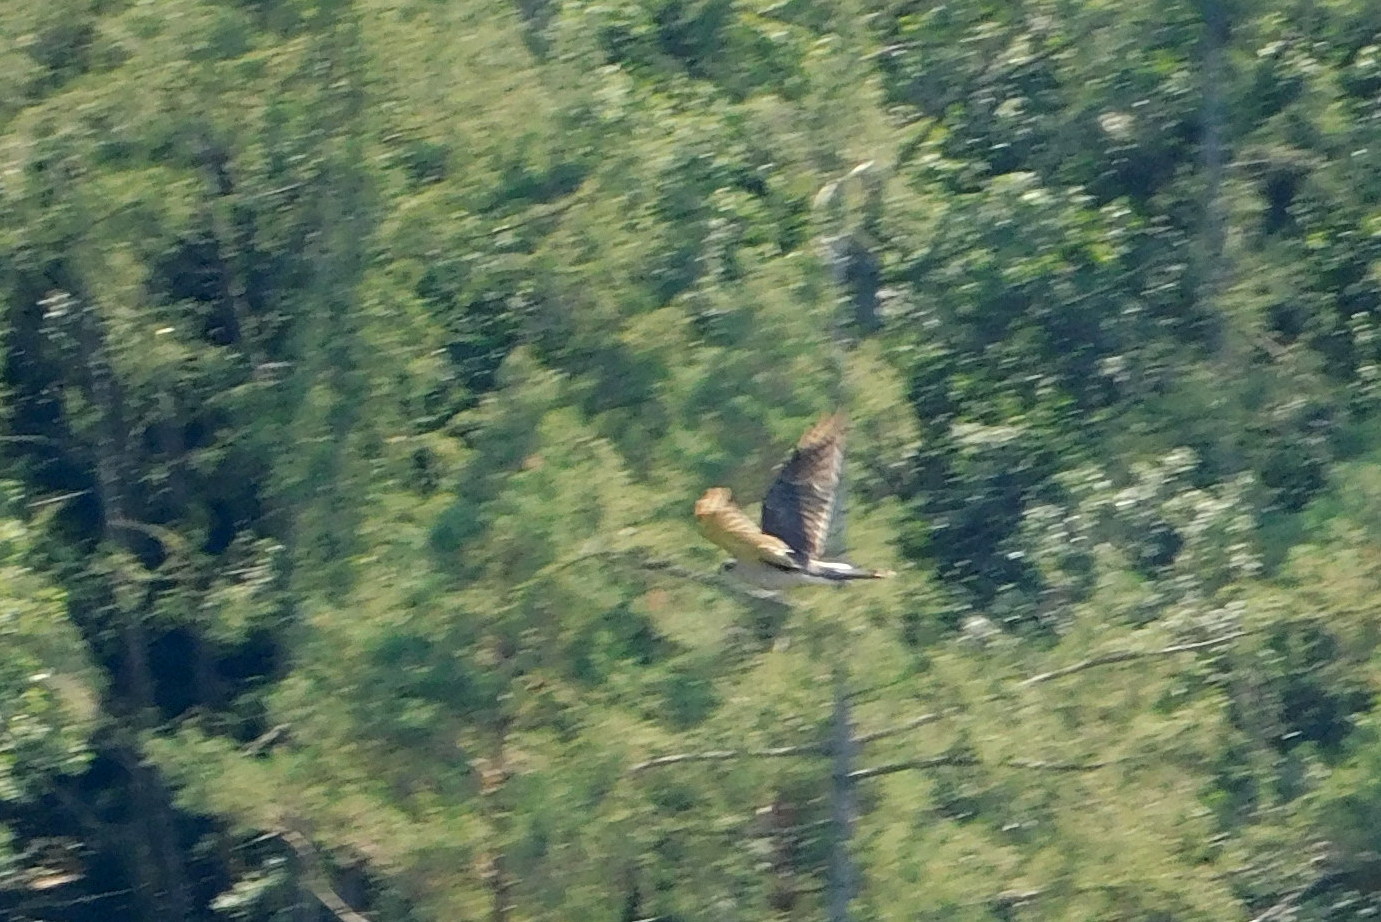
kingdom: Animalia
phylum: Chordata
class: Aves
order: Accipitriformes
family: Accipitridae
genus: Accipiter
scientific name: Accipiter gentilis
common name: Northern goshawk
